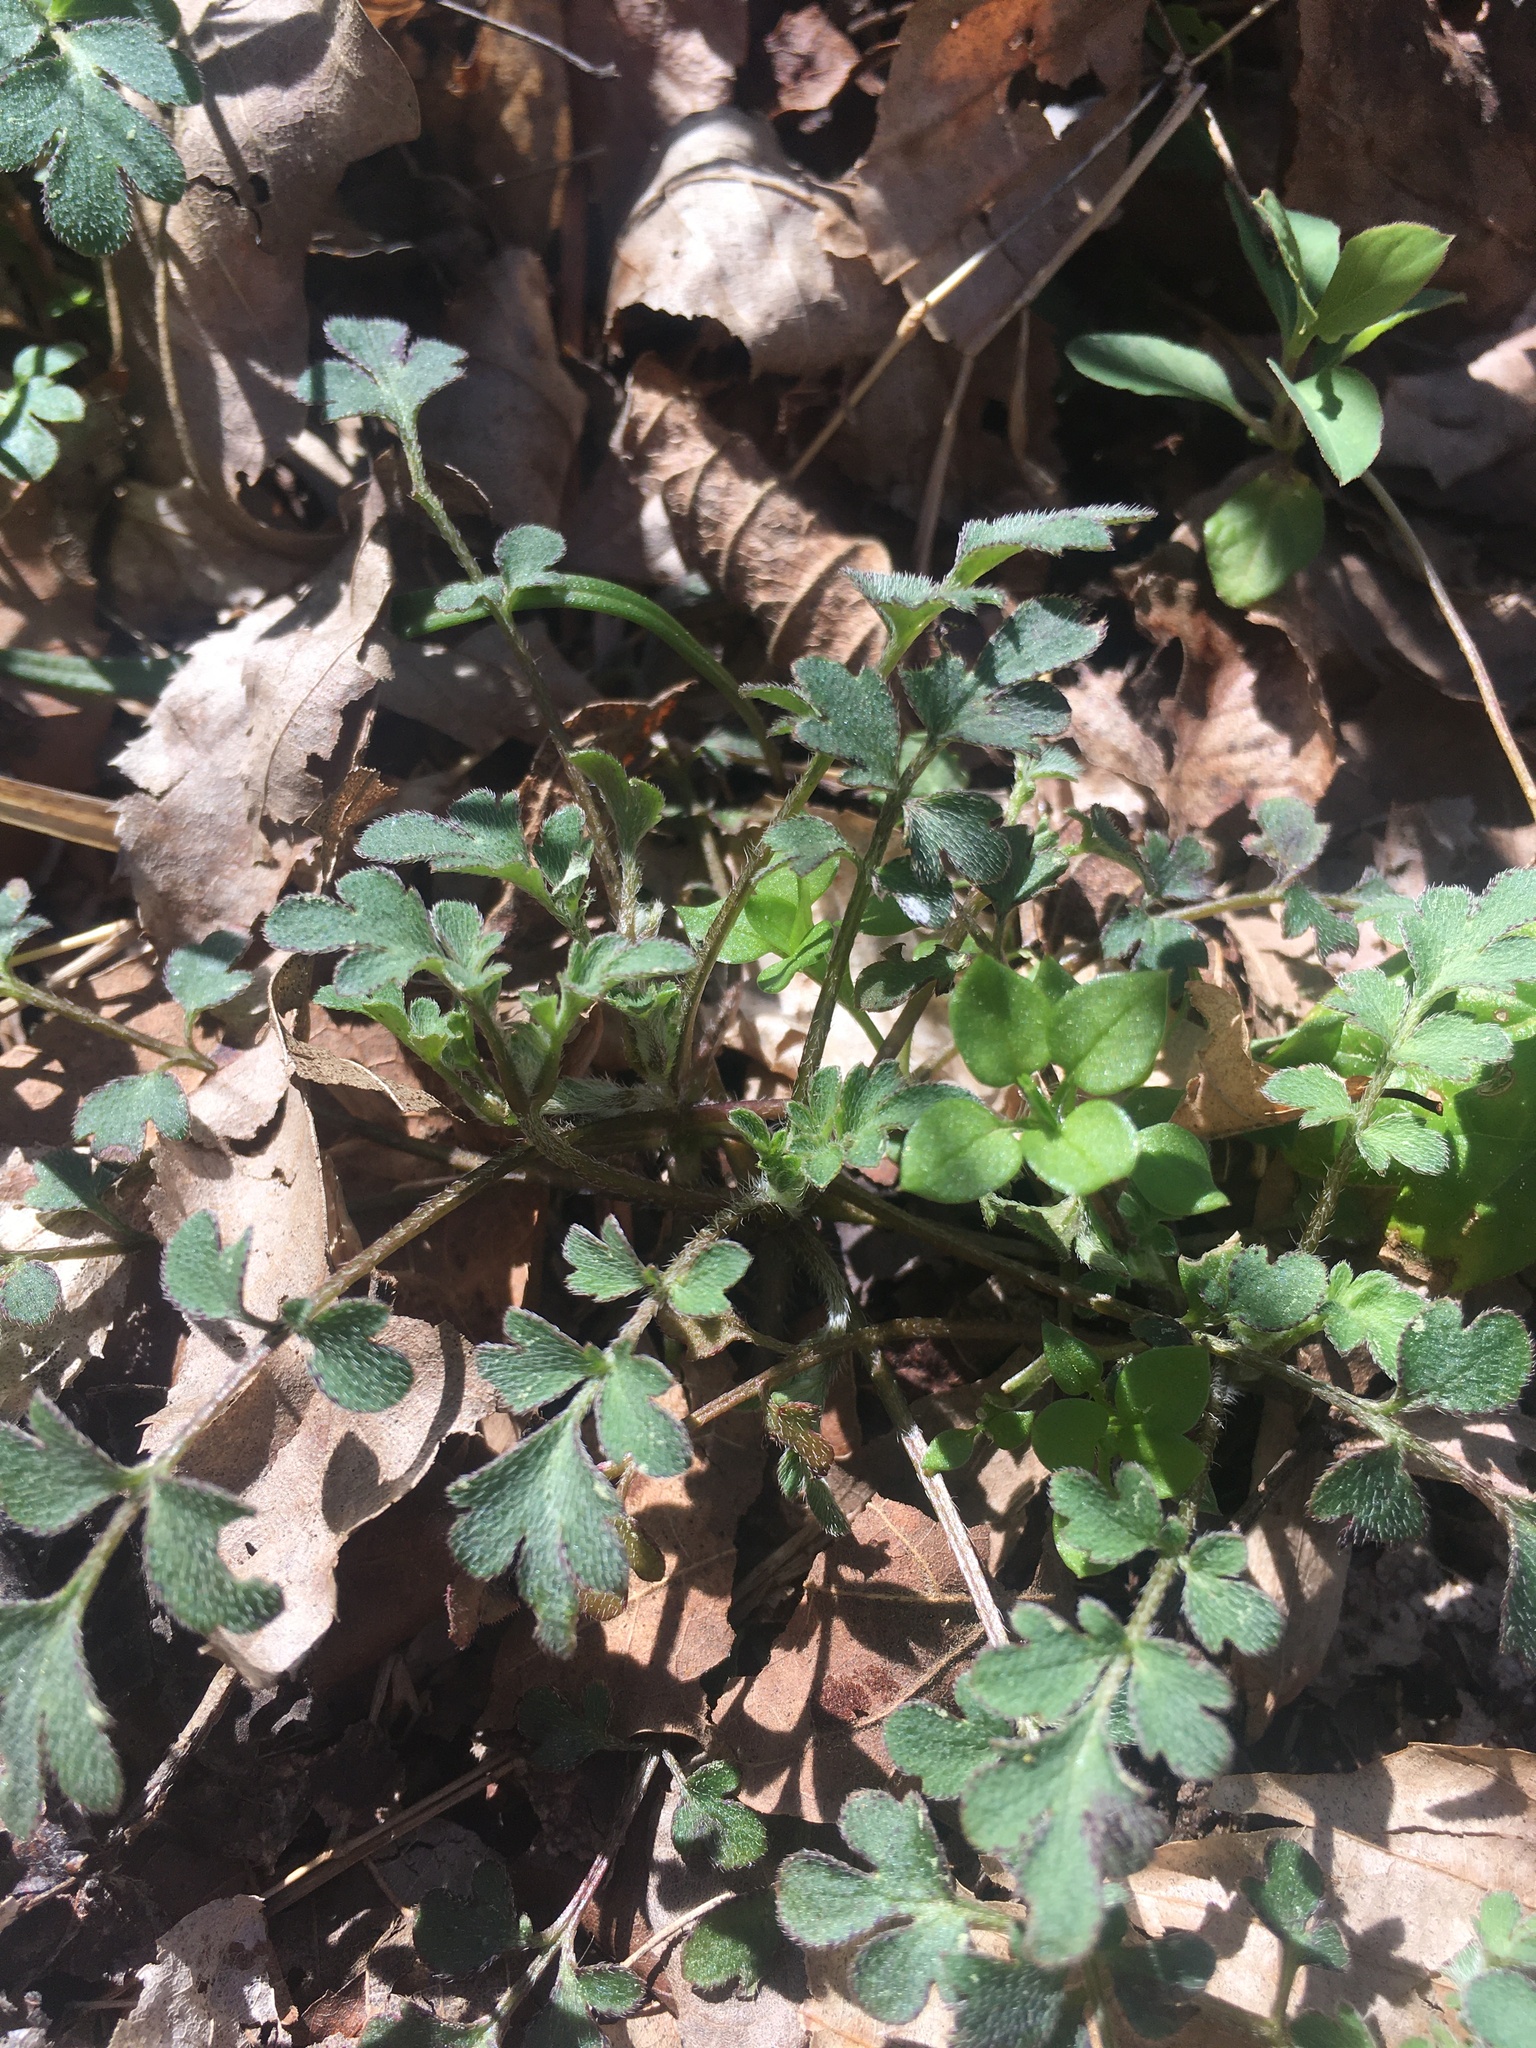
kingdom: Plantae
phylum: Tracheophyta
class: Magnoliopsida
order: Boraginales
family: Hydrophyllaceae
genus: Phacelia
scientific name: Phacelia covillei
